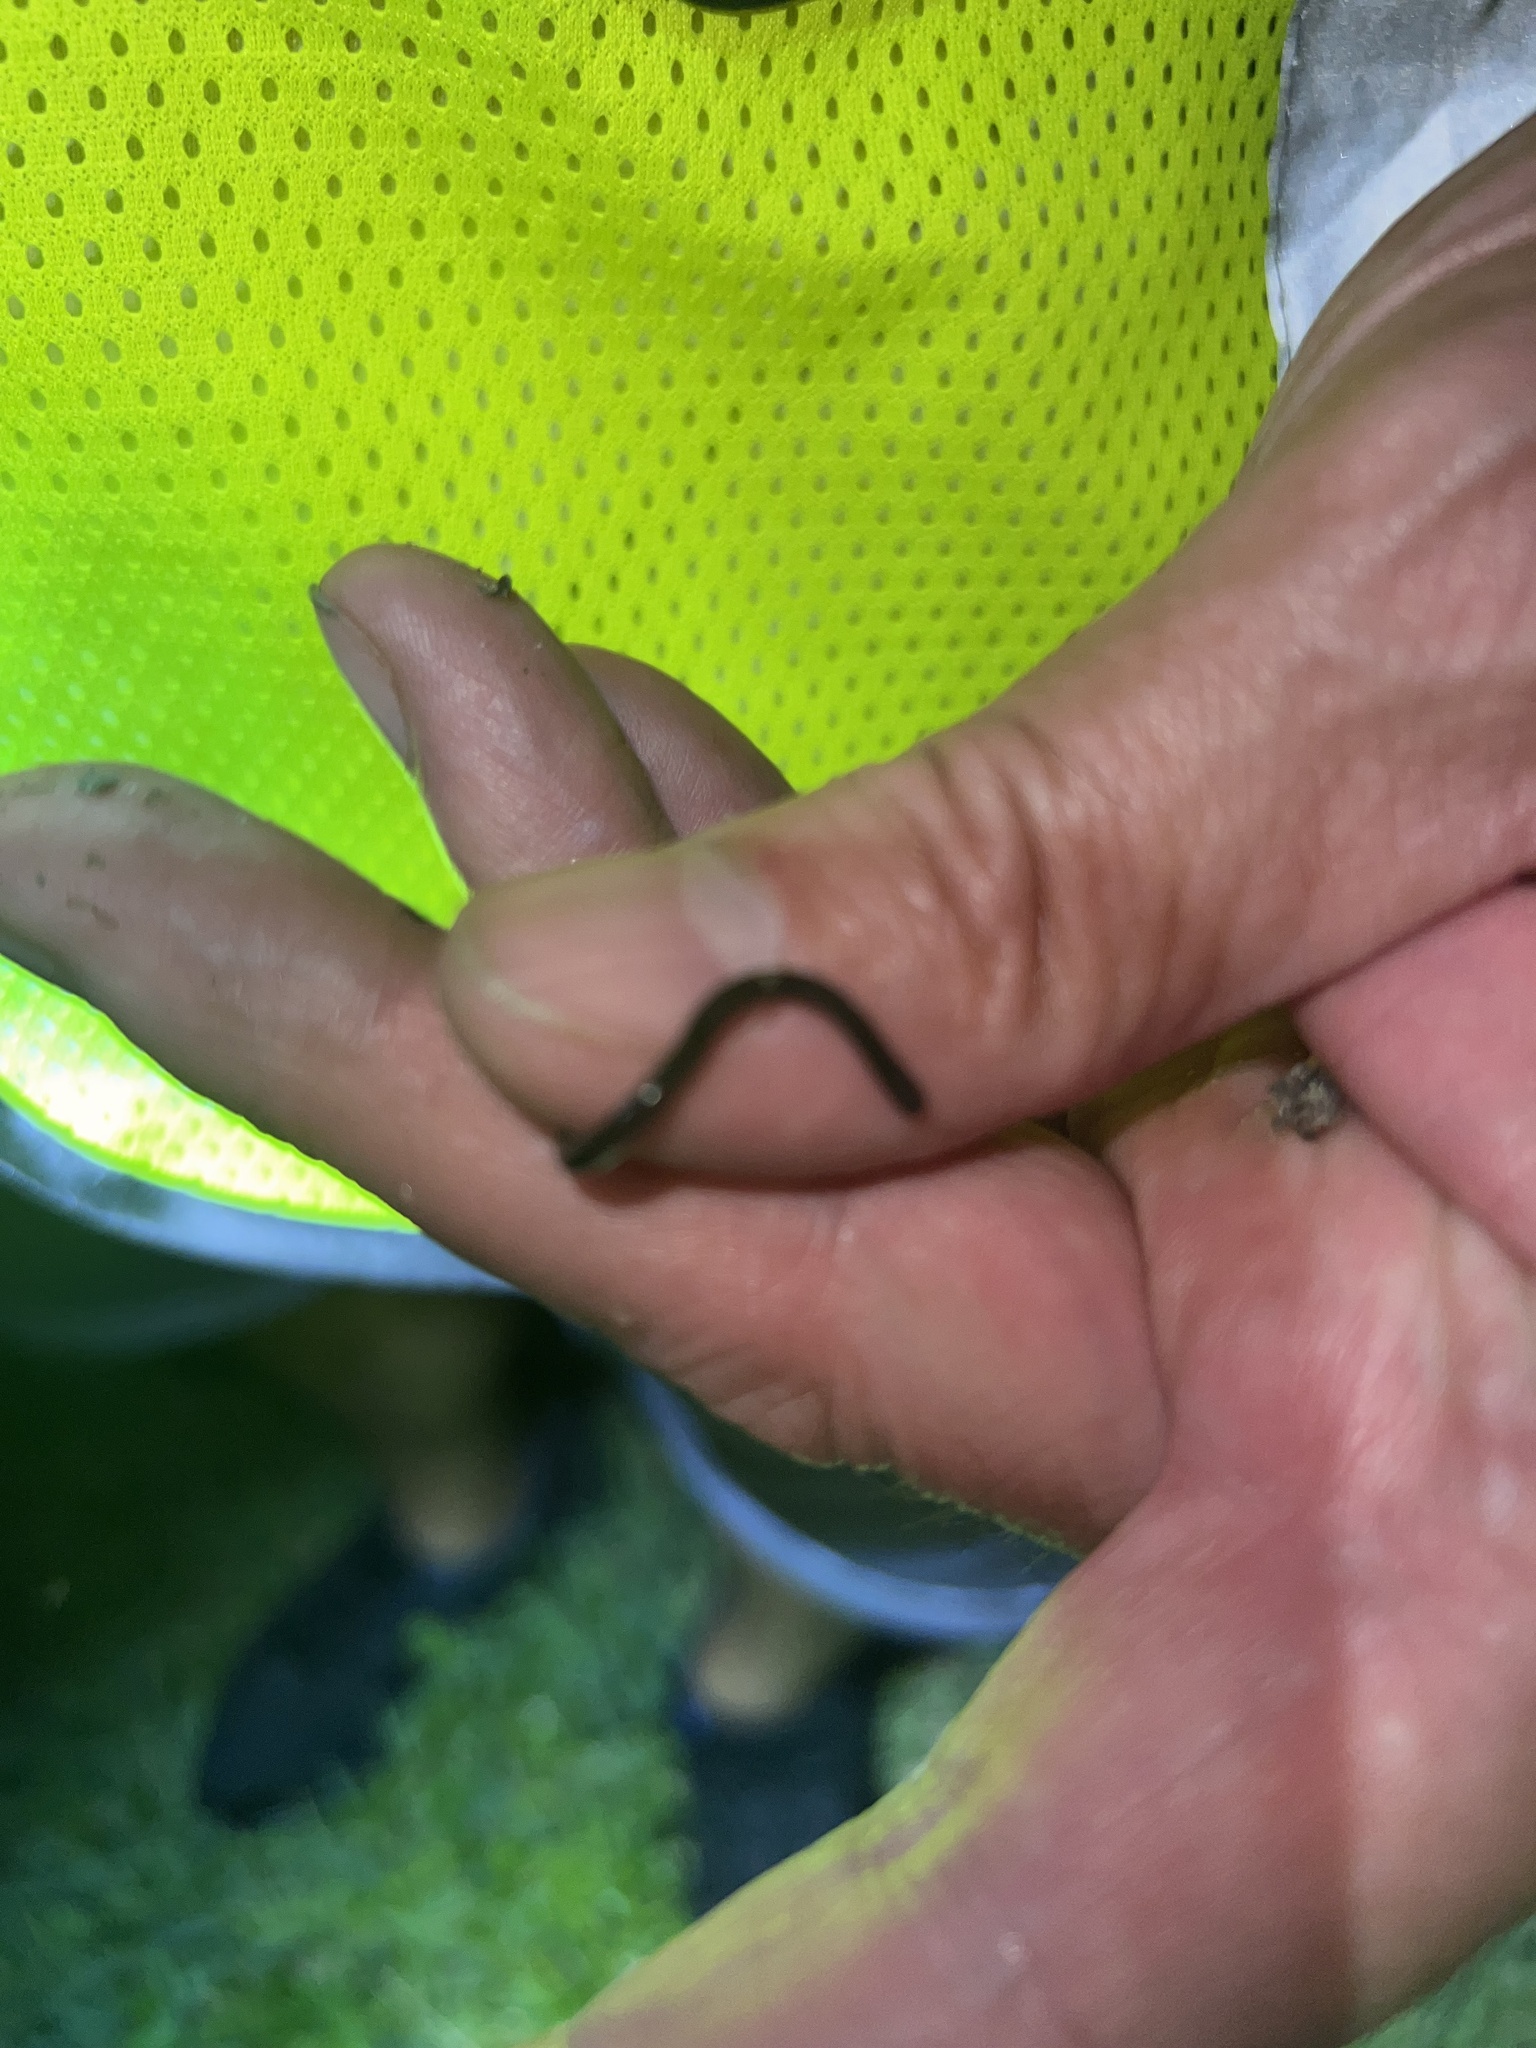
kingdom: Animalia
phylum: Chordata
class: Squamata
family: Typhlopidae
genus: Indotyphlops
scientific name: Indotyphlops braminus
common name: Brahminy blindsnake
